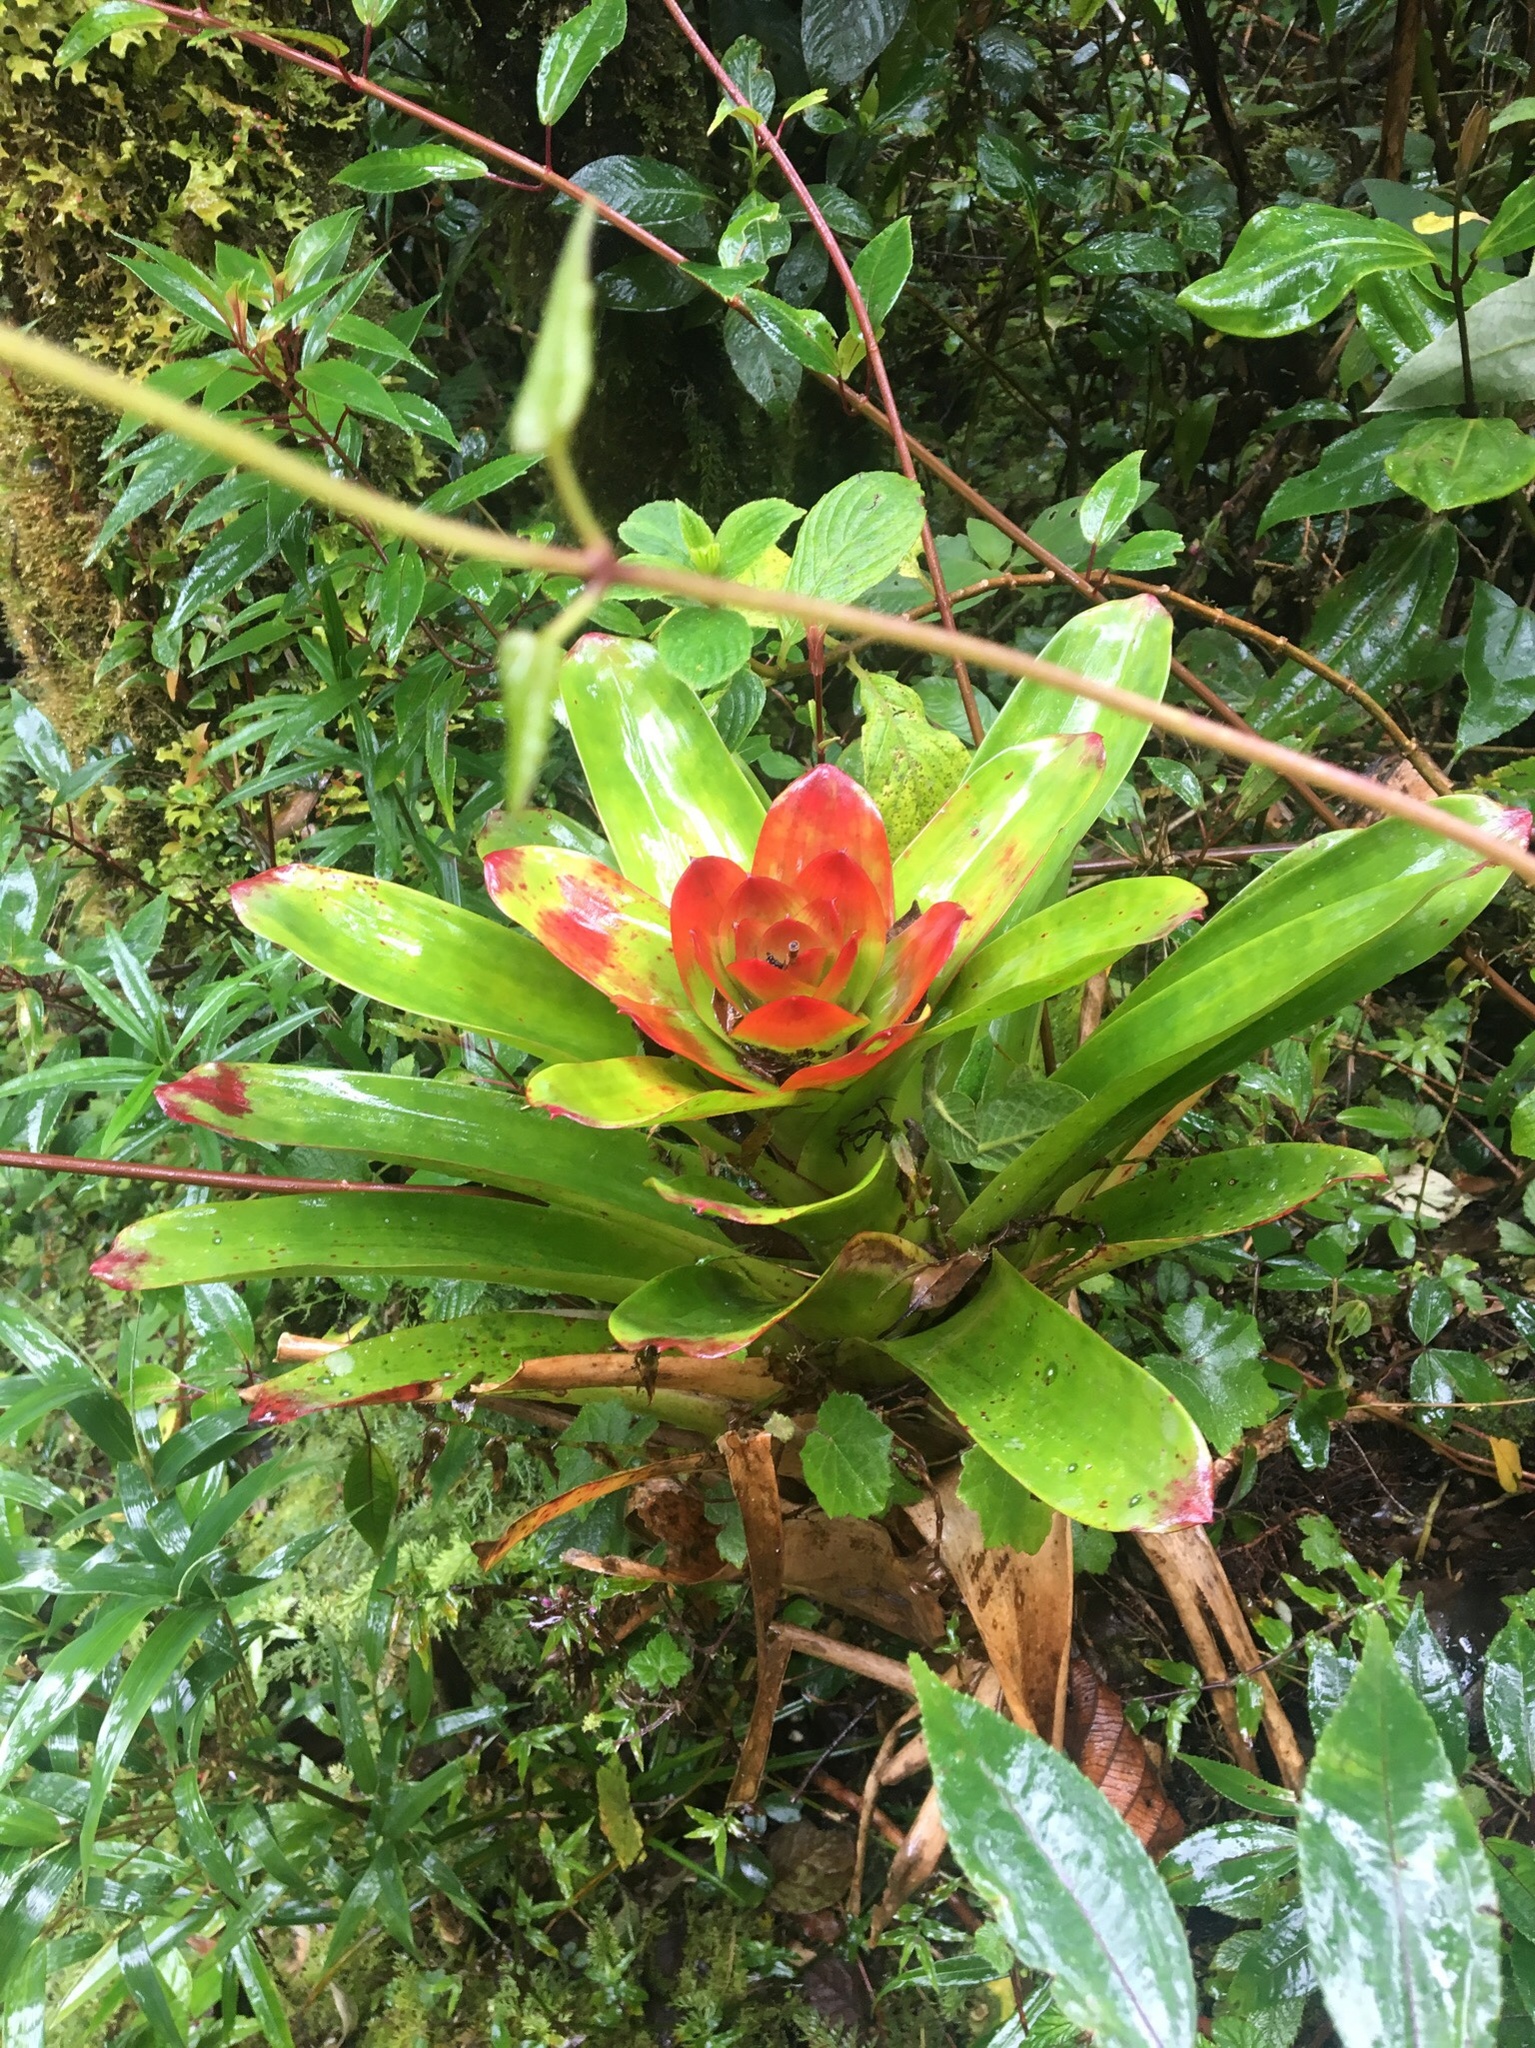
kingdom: Plantae
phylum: Tracheophyta
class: Liliopsida
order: Poales
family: Bromeliaceae
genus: Guzmania
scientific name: Guzmania gloriosa
